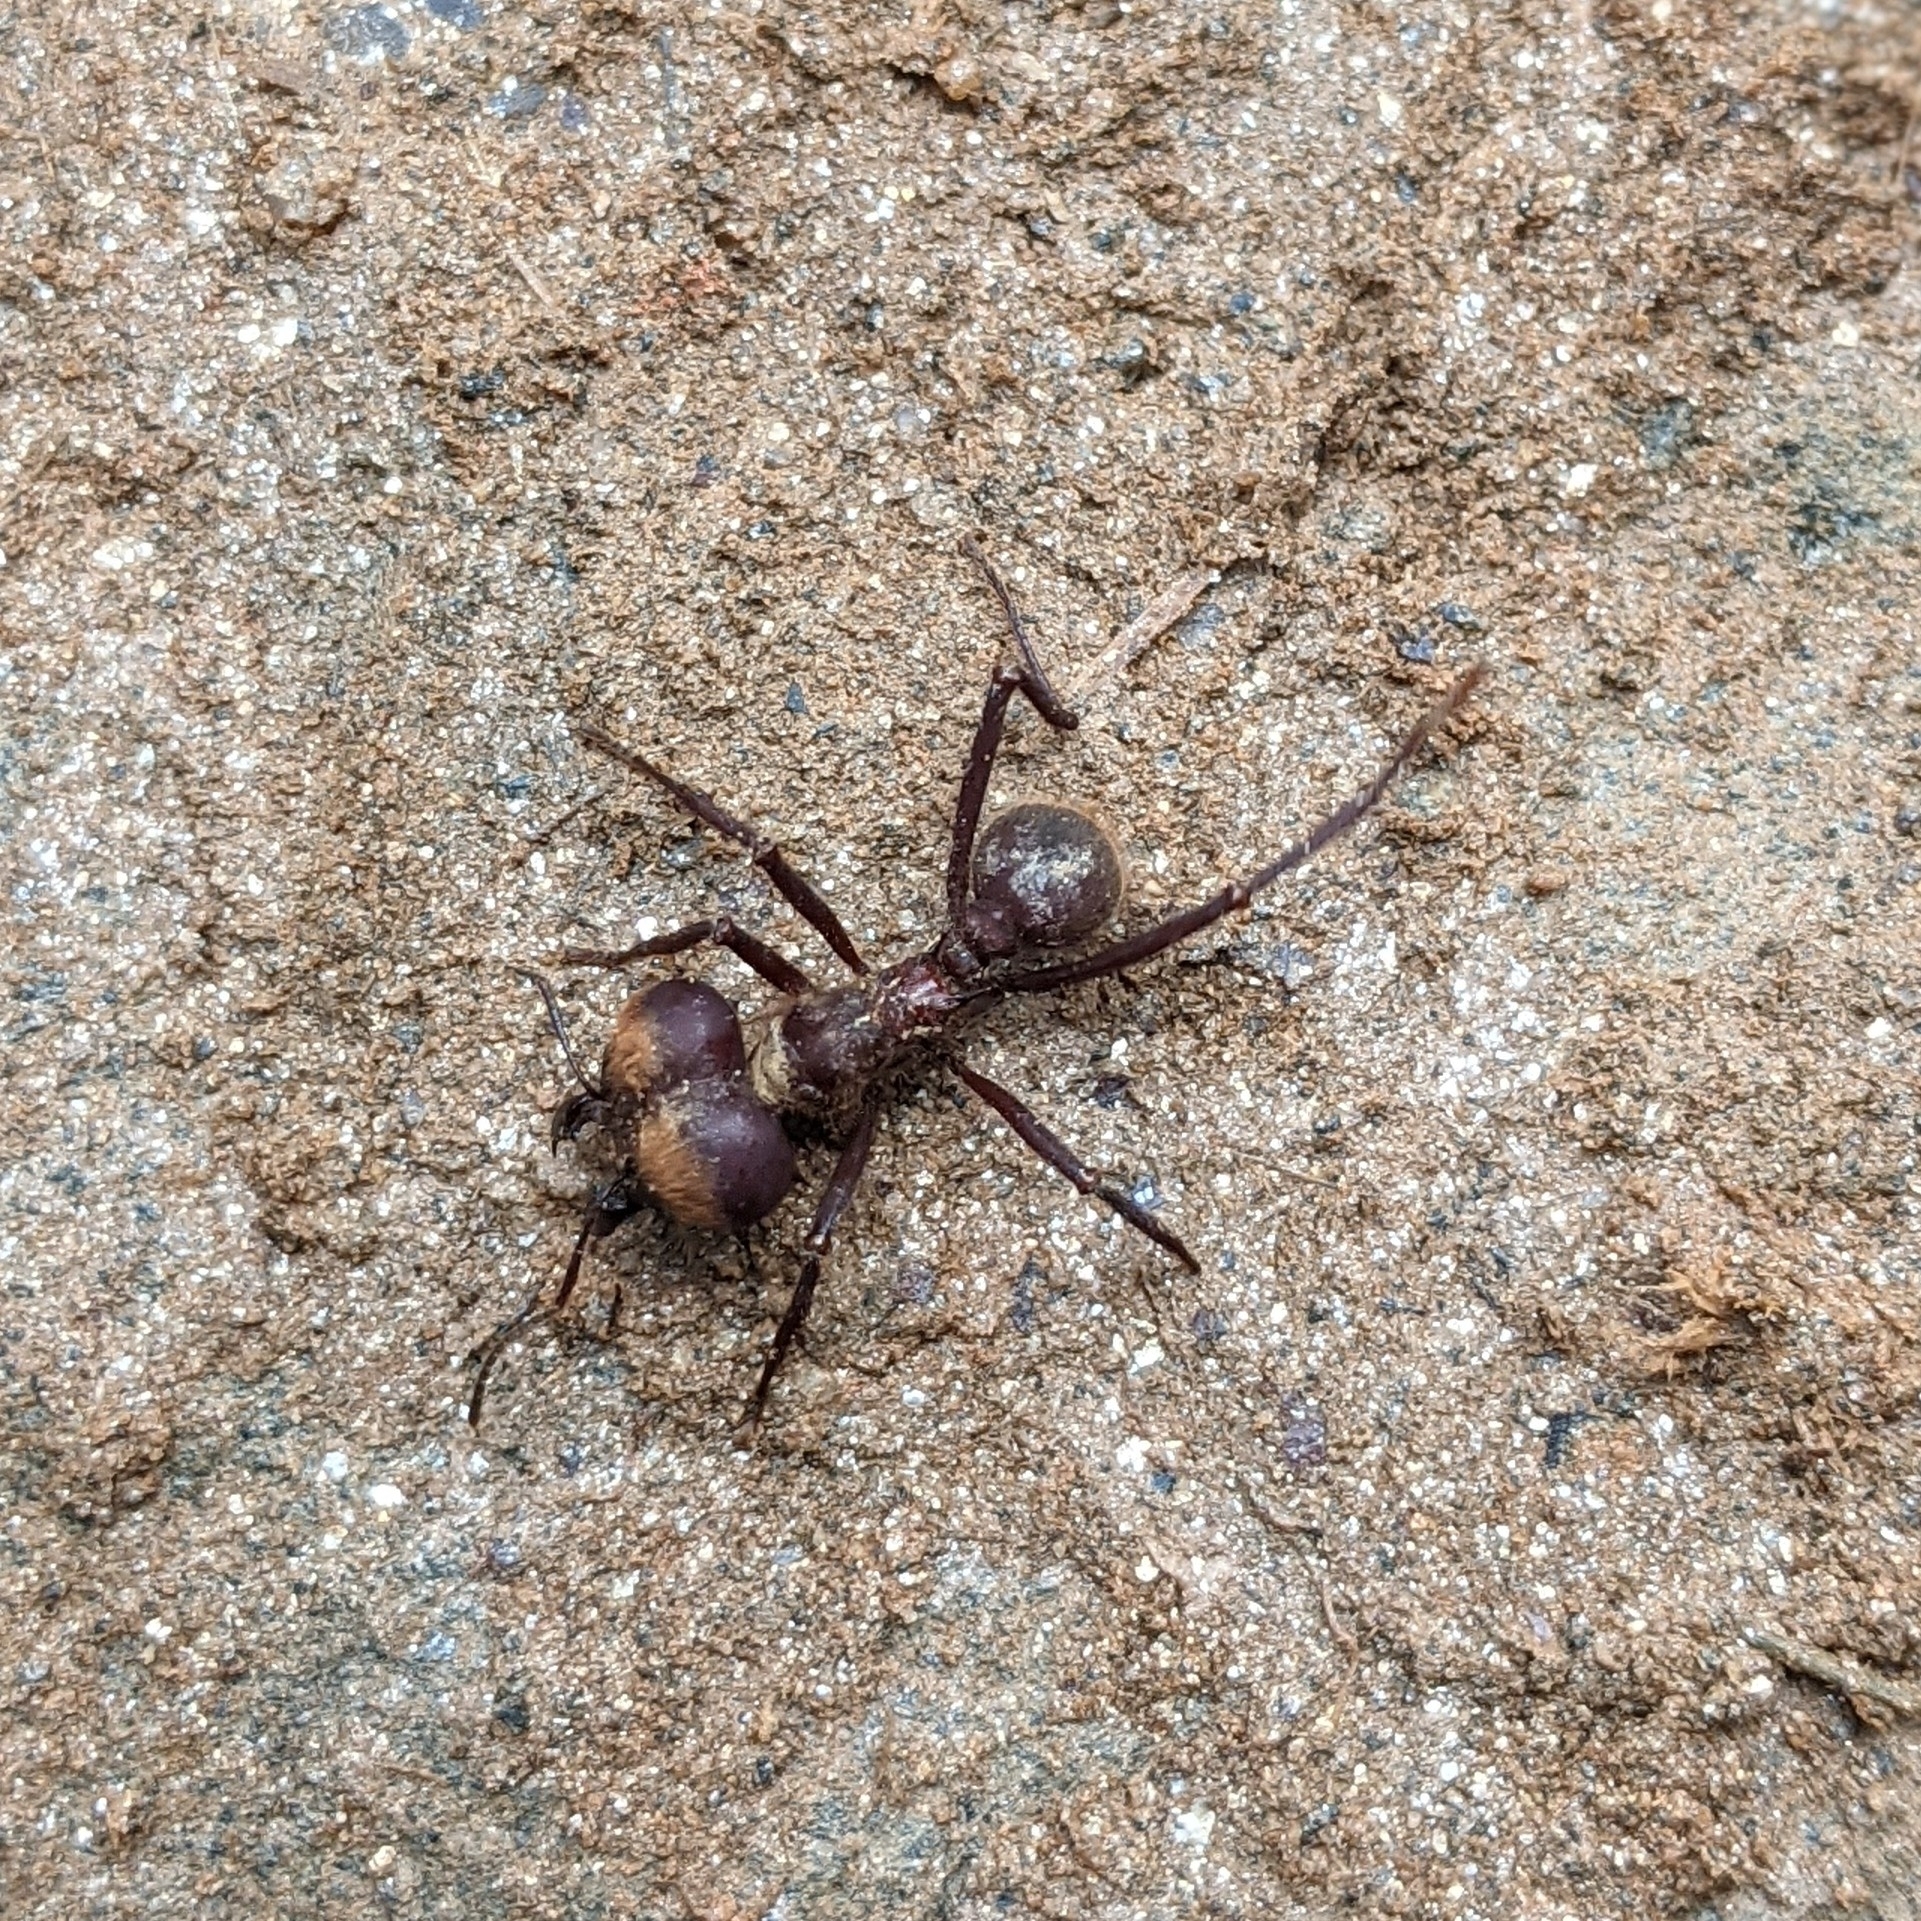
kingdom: Animalia
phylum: Arthropoda
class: Insecta
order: Hymenoptera
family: Formicidae
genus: Atta
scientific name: Atta cephalotes
